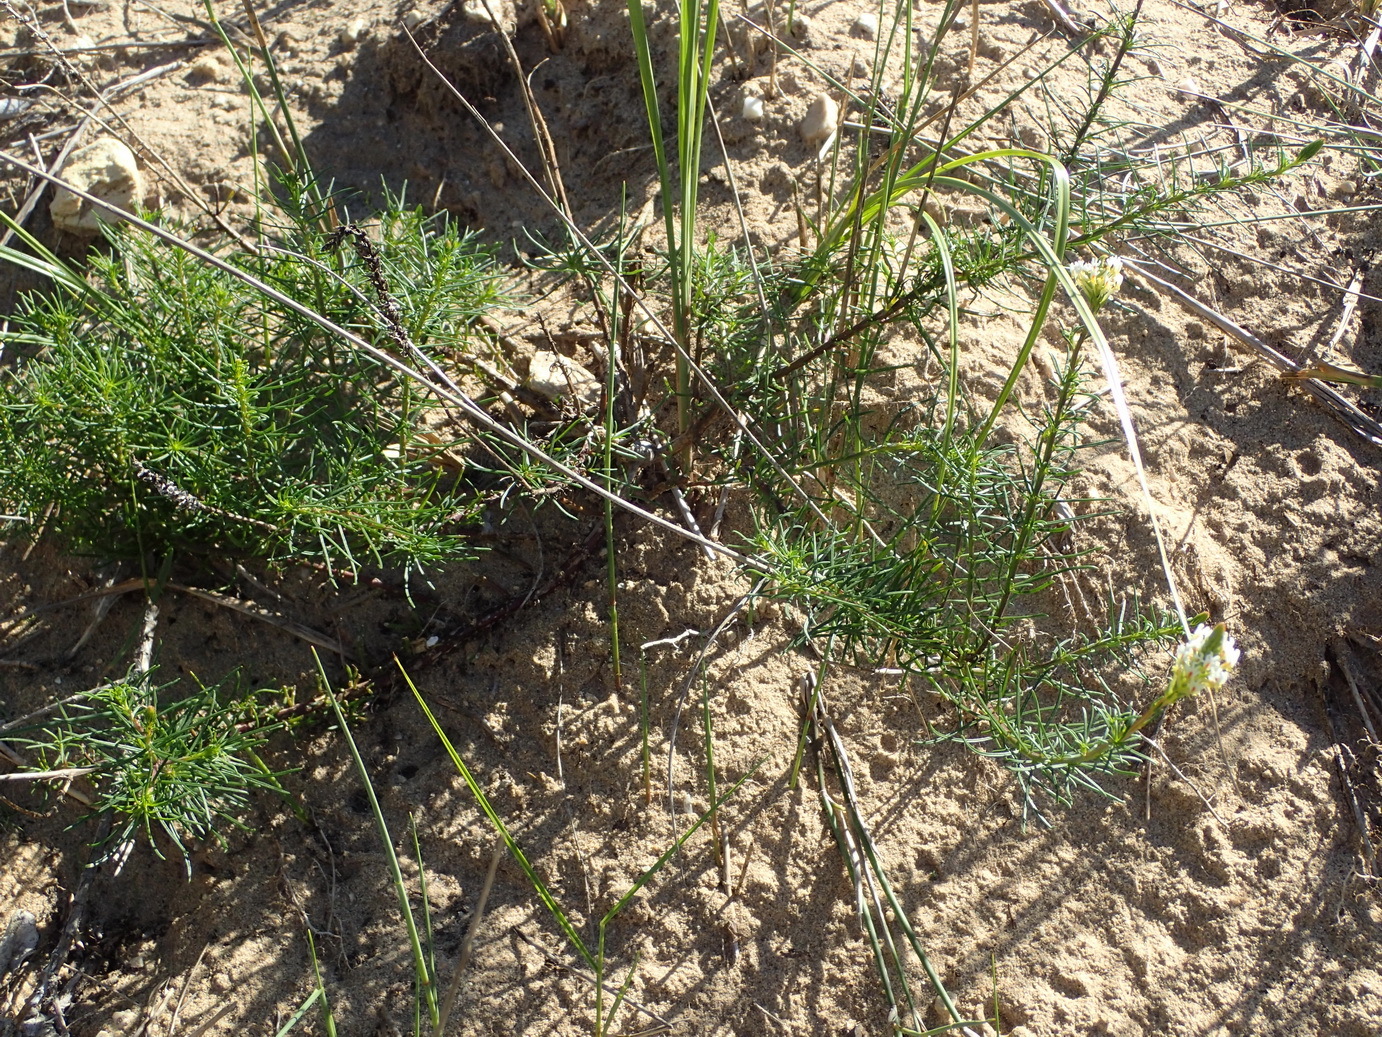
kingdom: Plantae
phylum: Tracheophyta
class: Magnoliopsida
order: Lamiales
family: Scrophulariaceae
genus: Hebenstretia
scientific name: Hebenstretia integrifolia
